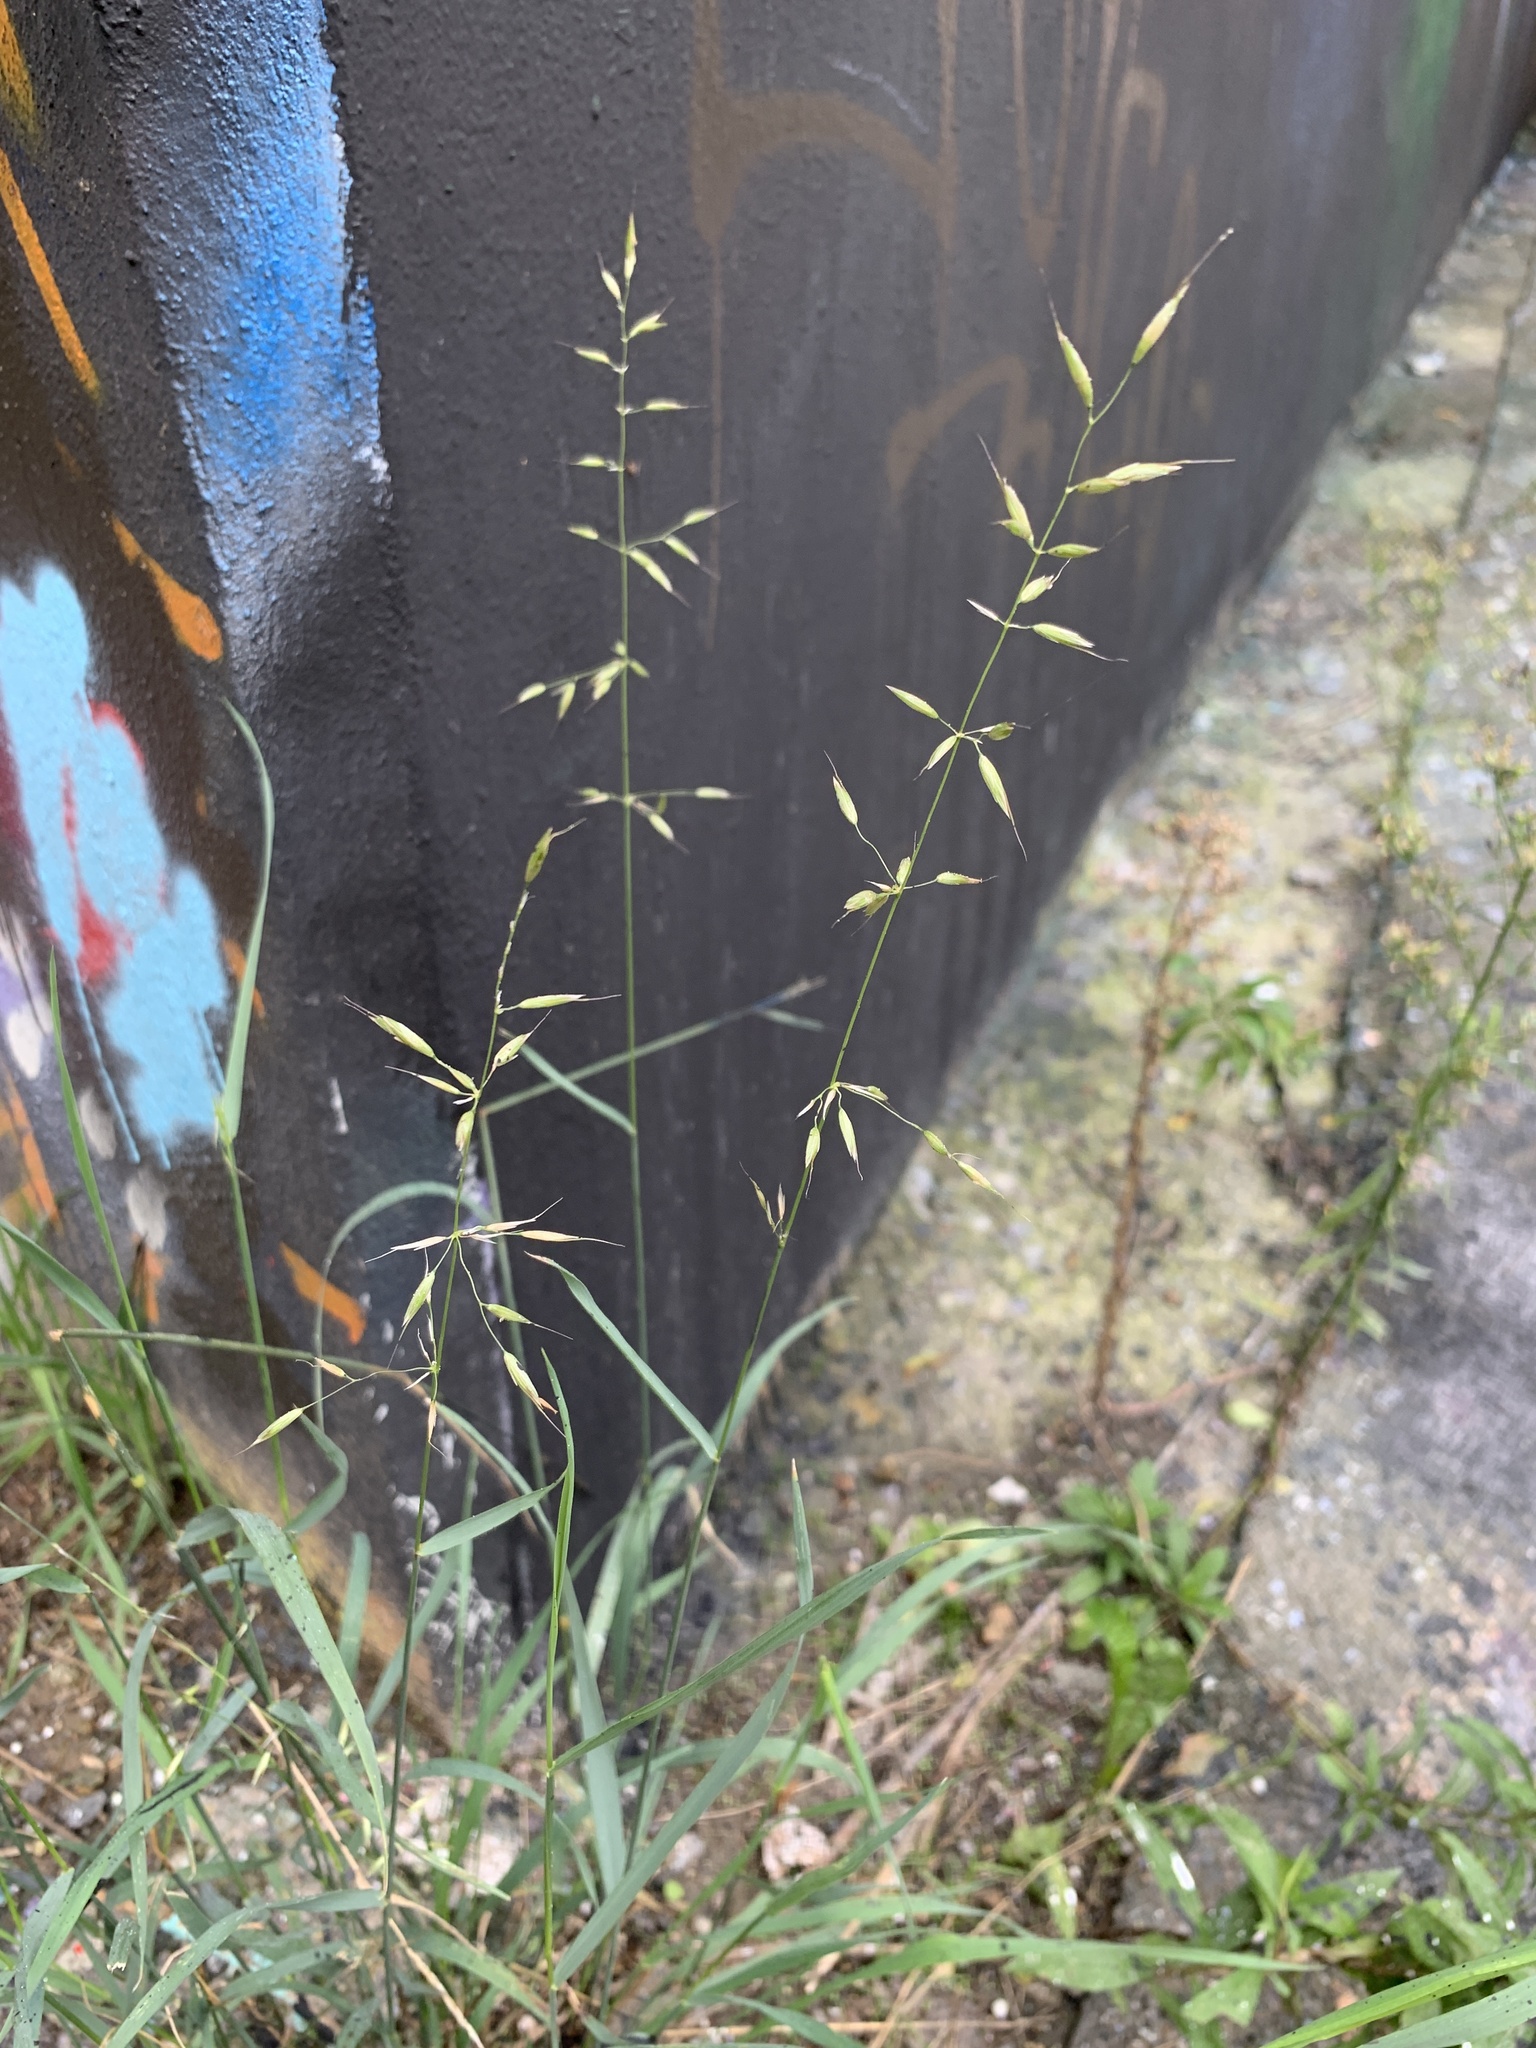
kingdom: Plantae
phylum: Tracheophyta
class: Liliopsida
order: Poales
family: Poaceae
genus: Arrhenatherum
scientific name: Arrhenatherum elatius
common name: Tall oatgrass
